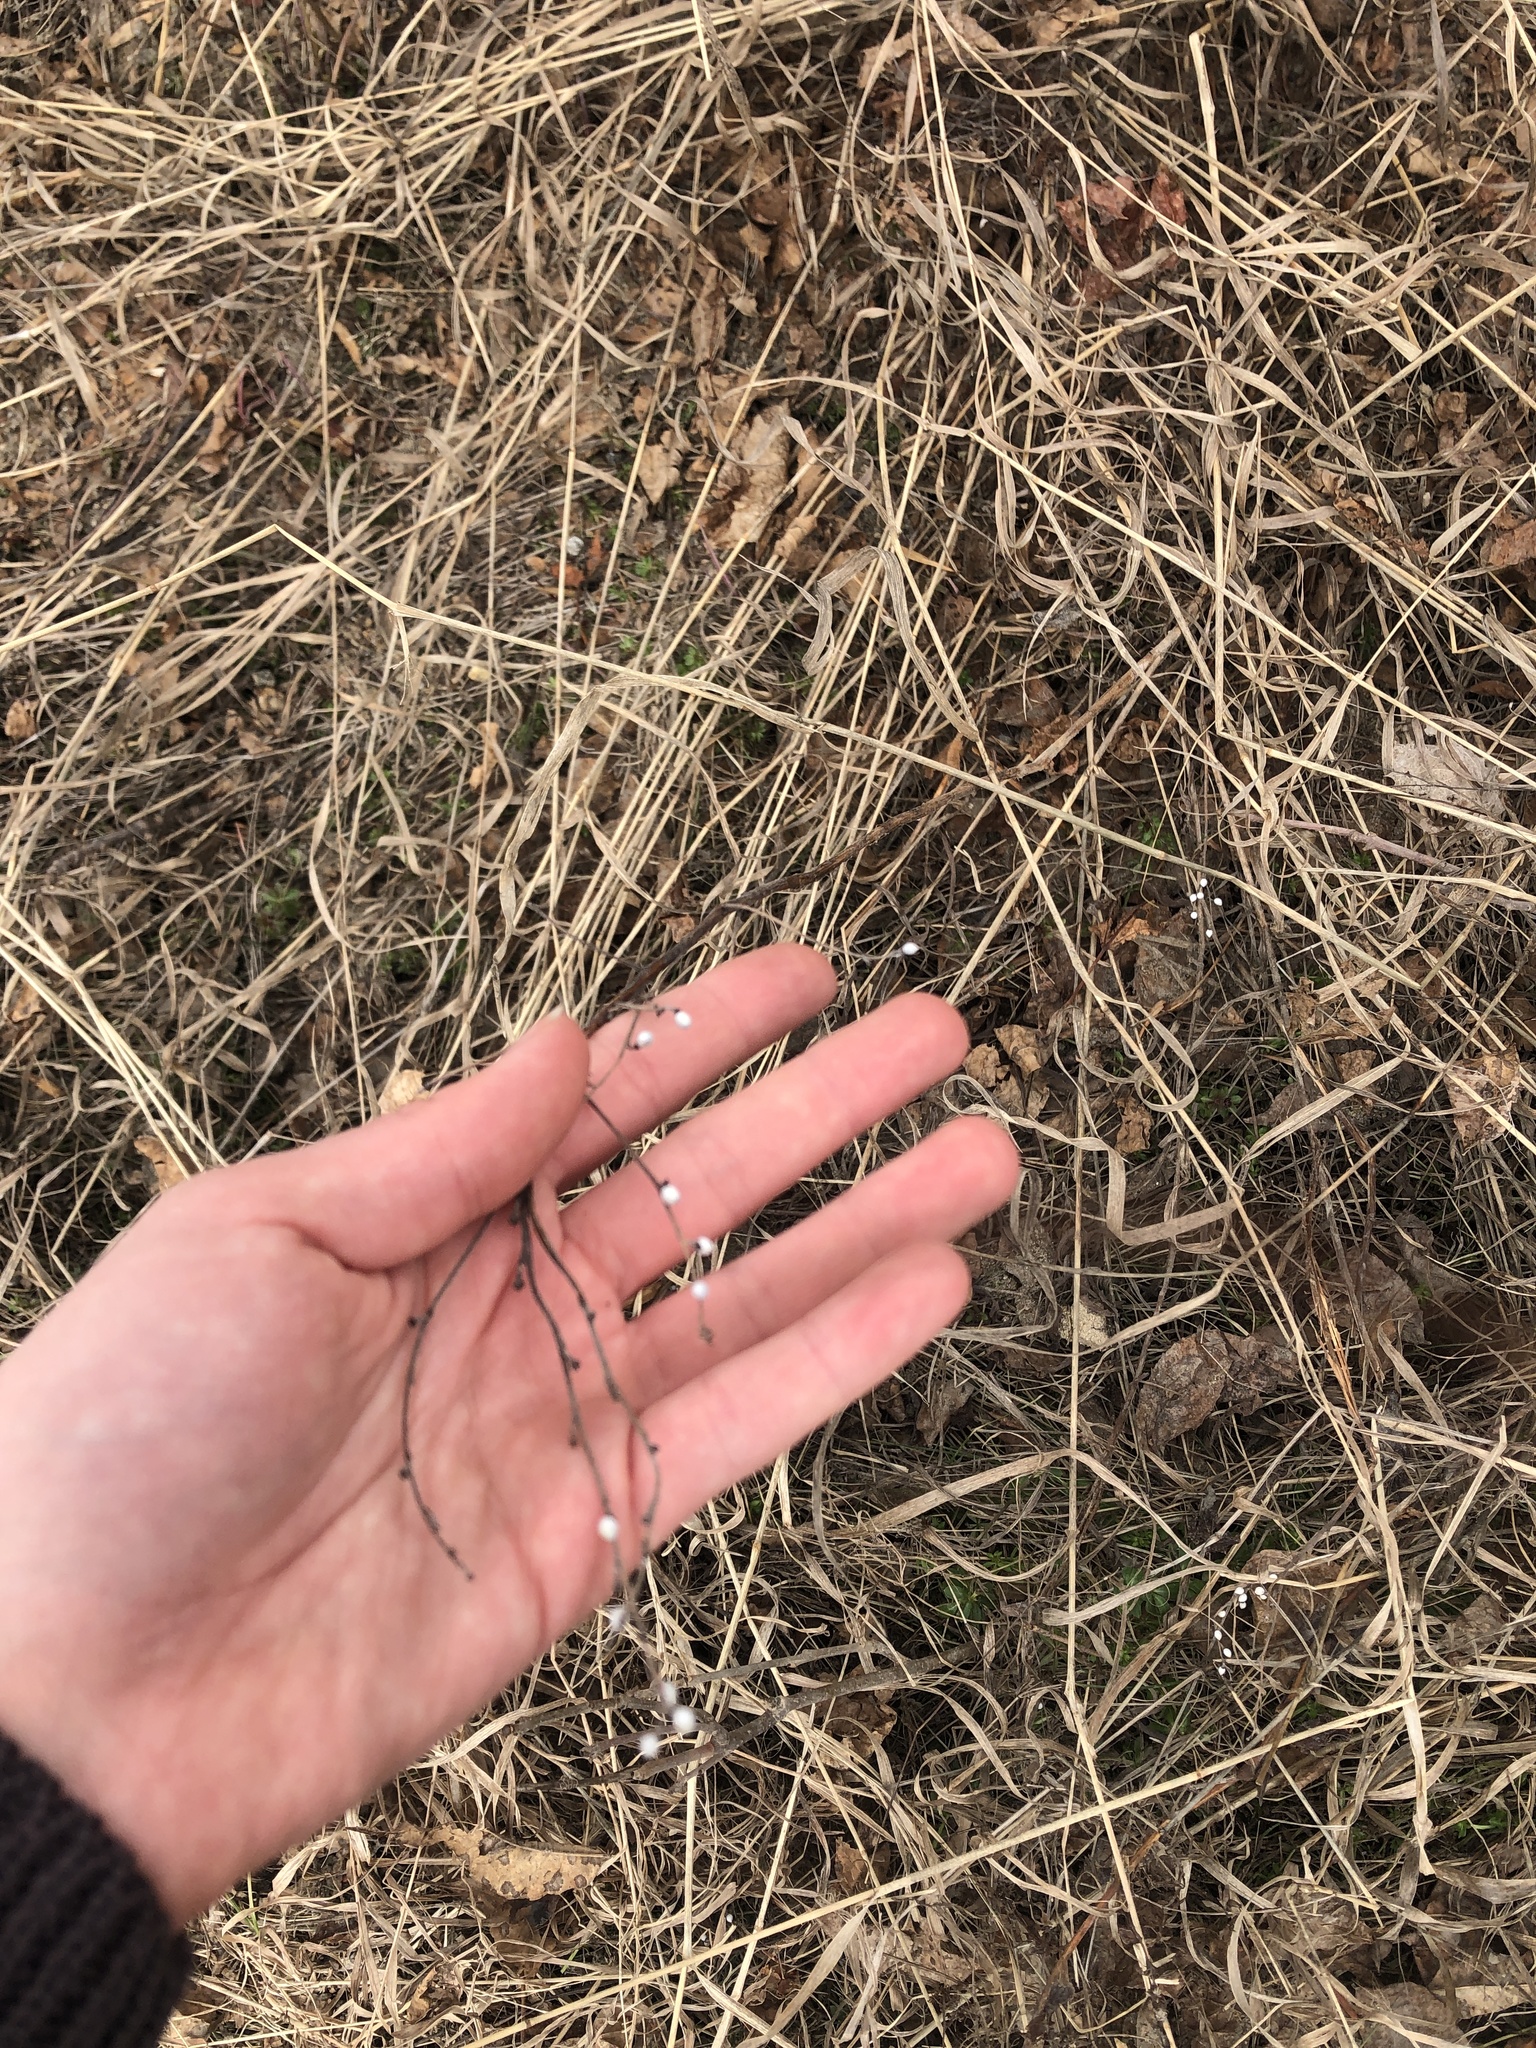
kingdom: Plantae
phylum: Tracheophyta
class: Magnoliopsida
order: Boraginales
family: Boraginaceae
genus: Lithospermum
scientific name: Lithospermum officinale
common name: Common gromwell
